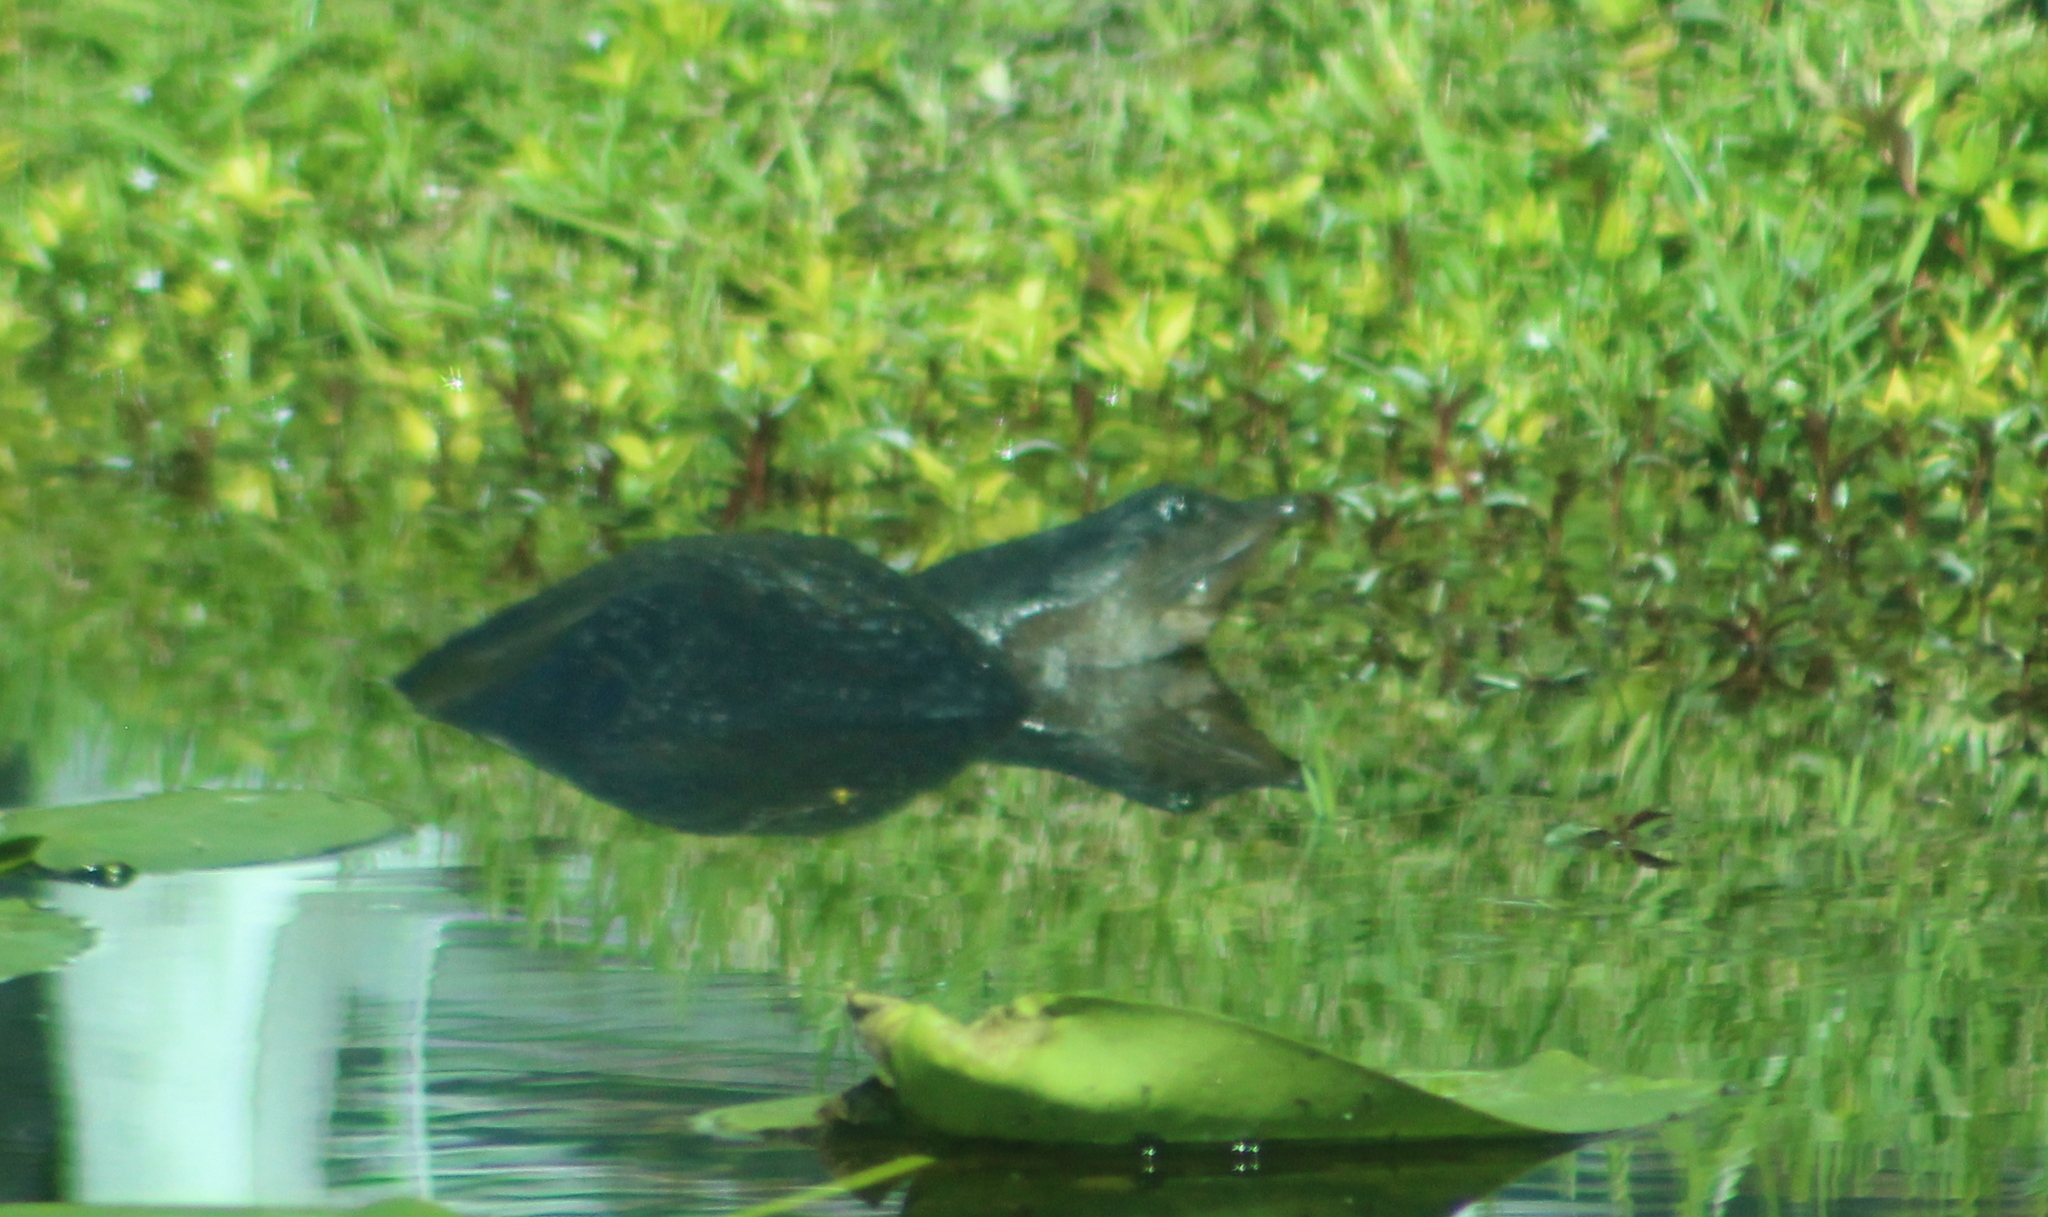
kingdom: Animalia
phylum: Chordata
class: Testudines
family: Trionychidae
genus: Apalone
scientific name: Apalone ferox
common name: Florida softshell turtle
